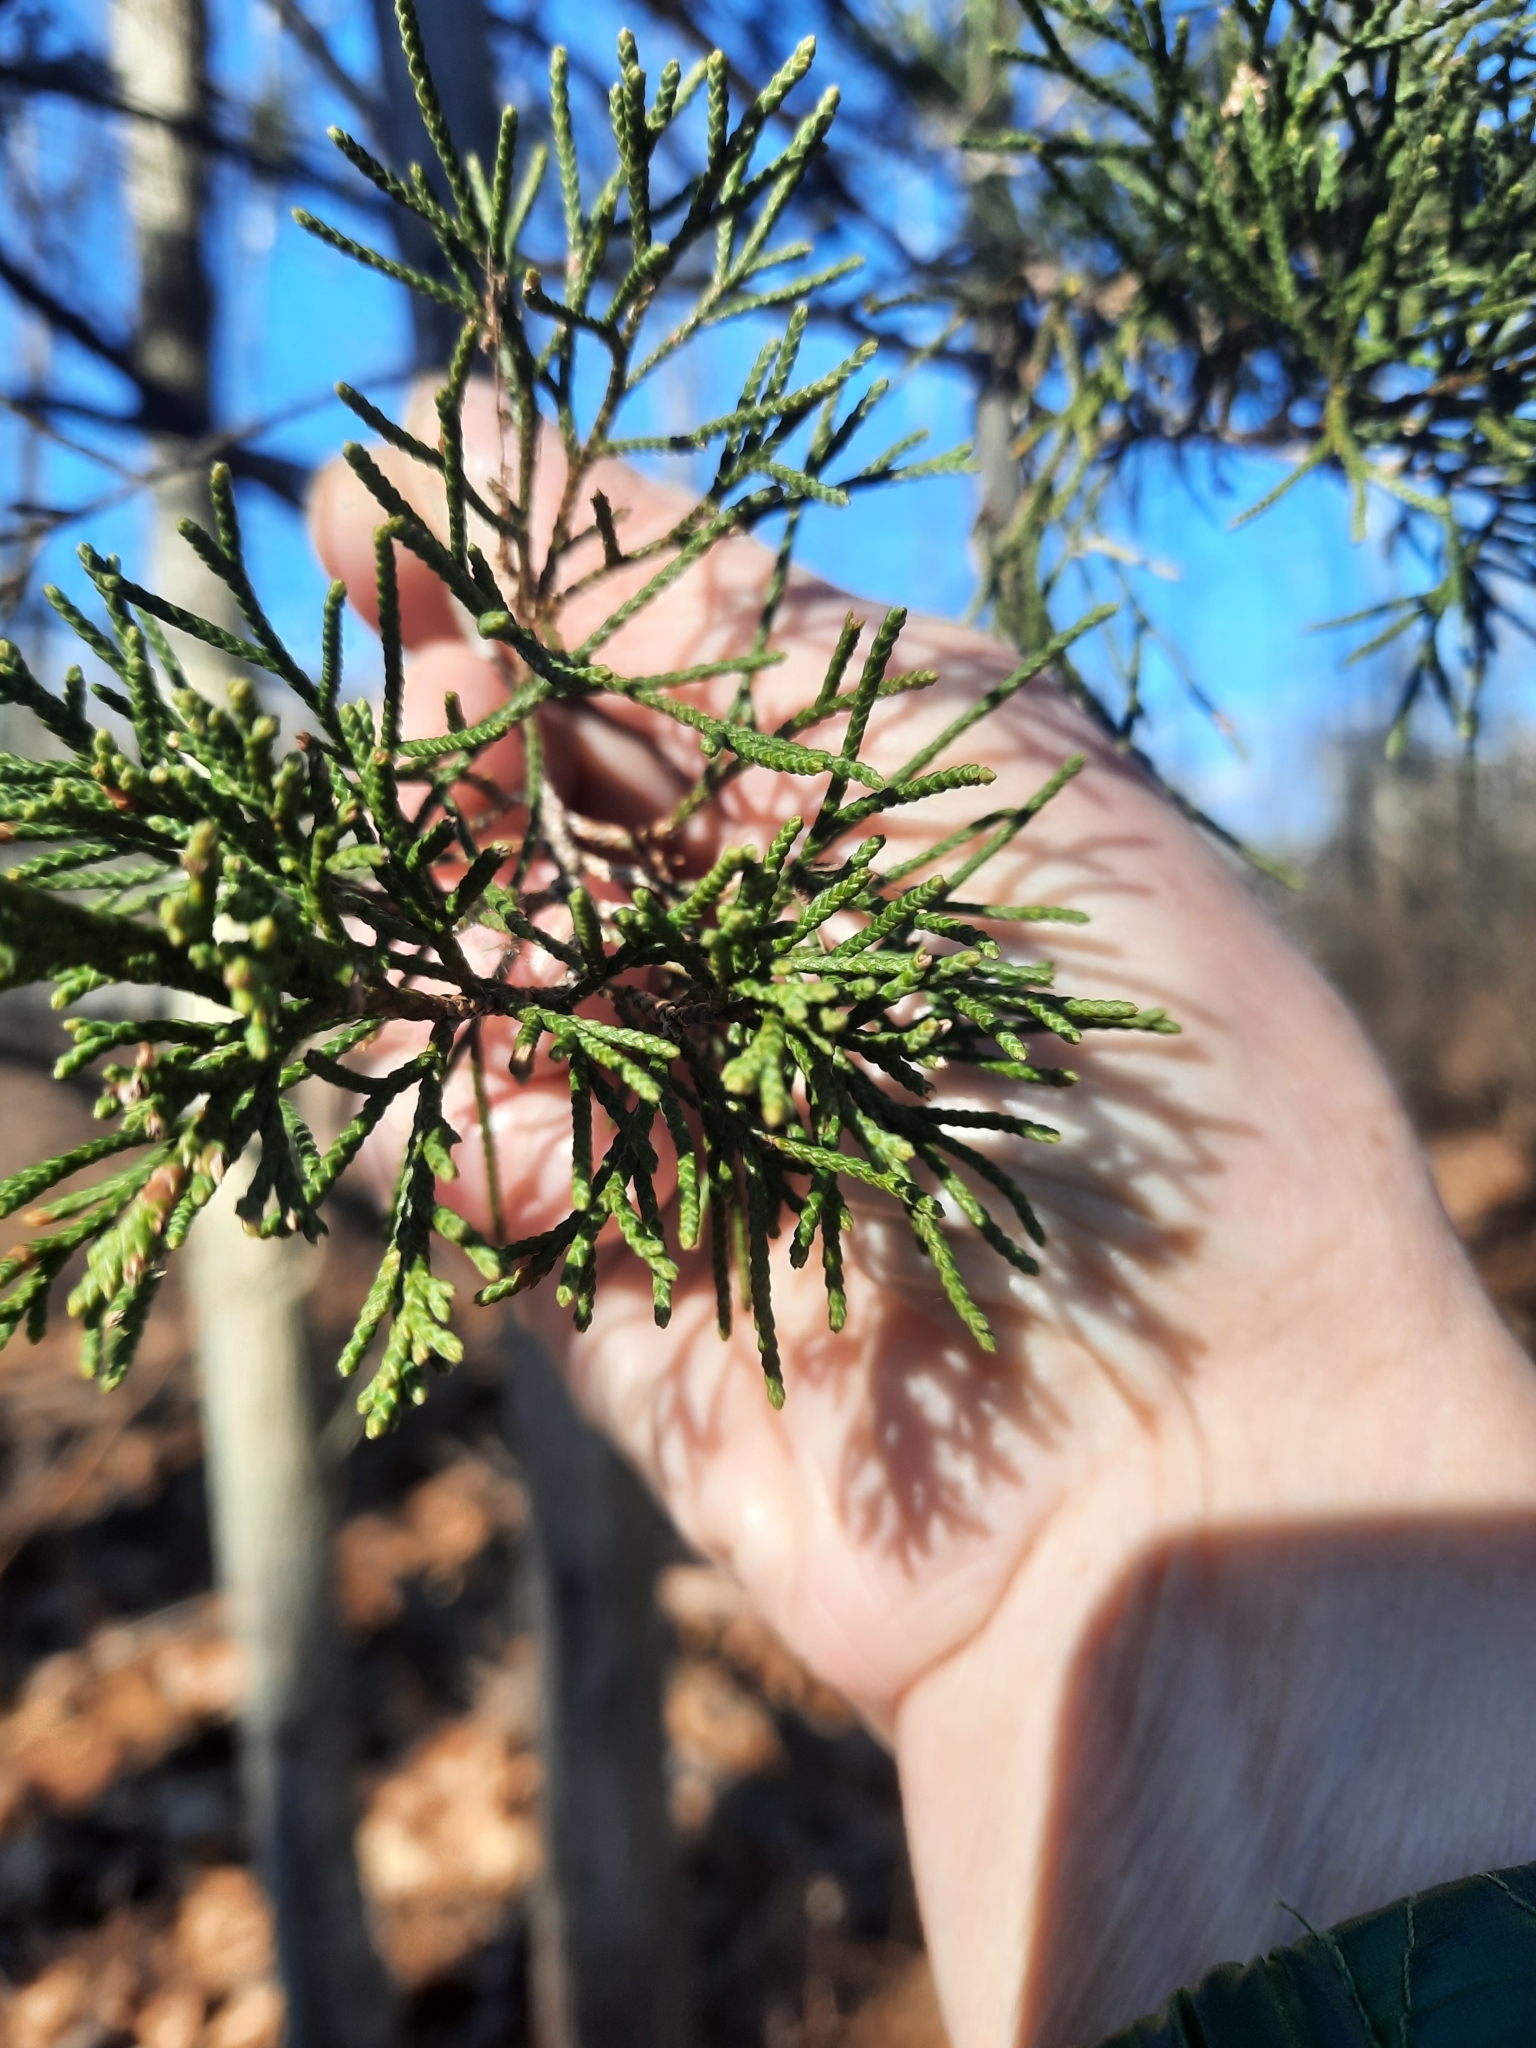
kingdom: Plantae
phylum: Tracheophyta
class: Pinopsida
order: Pinales
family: Cupressaceae
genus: Juniperus
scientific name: Juniperus virginiana
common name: Red juniper
